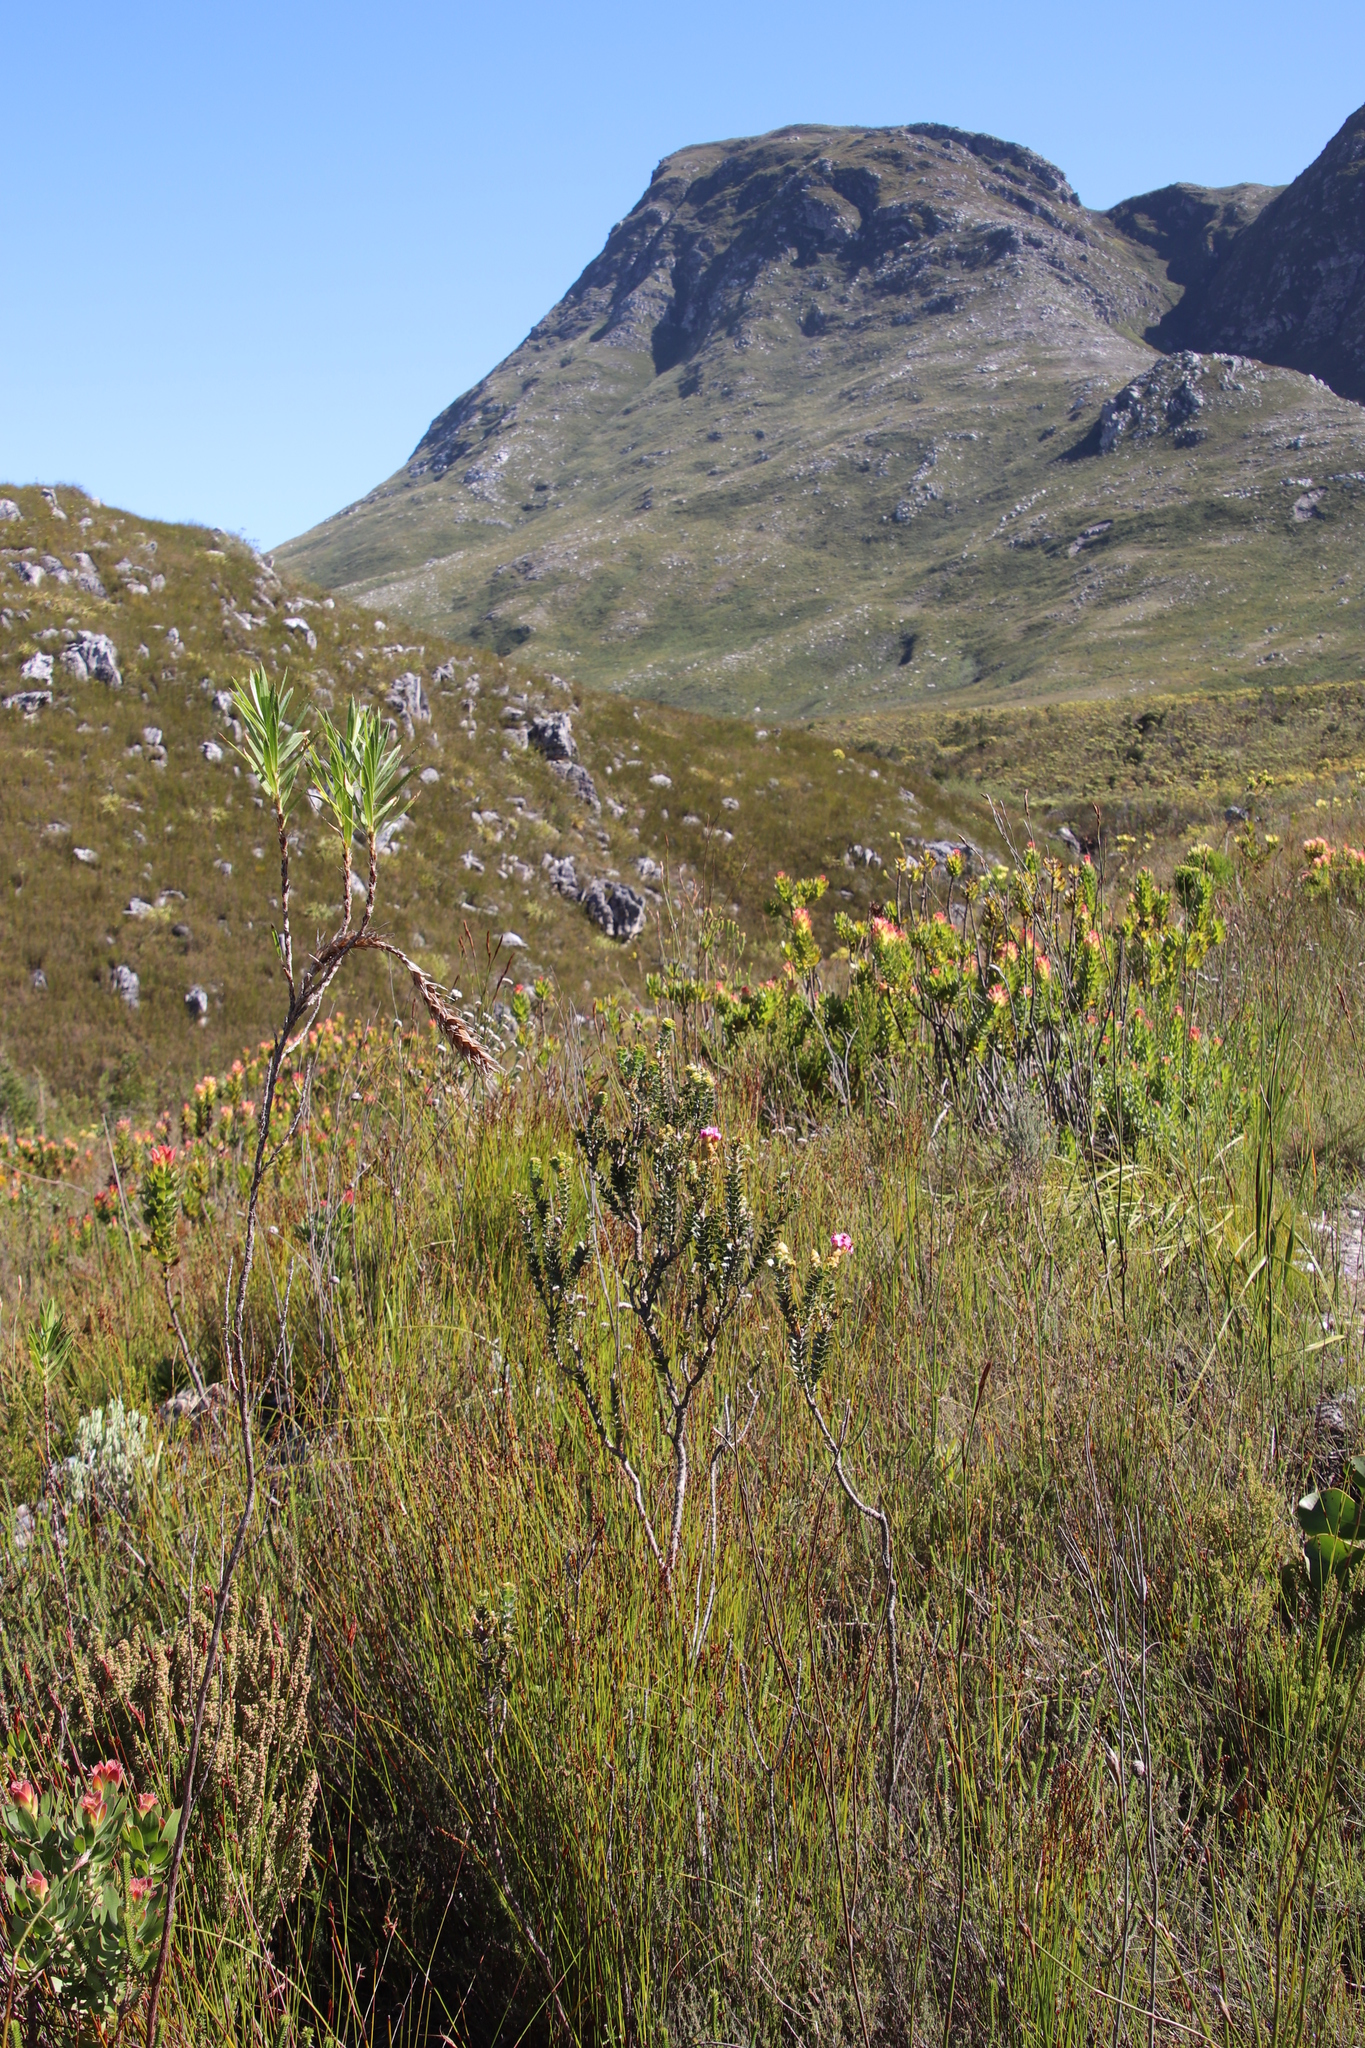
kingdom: Plantae
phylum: Tracheophyta
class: Magnoliopsida
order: Myrtales
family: Penaeaceae
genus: Saltera
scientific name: Saltera sarcocolla
